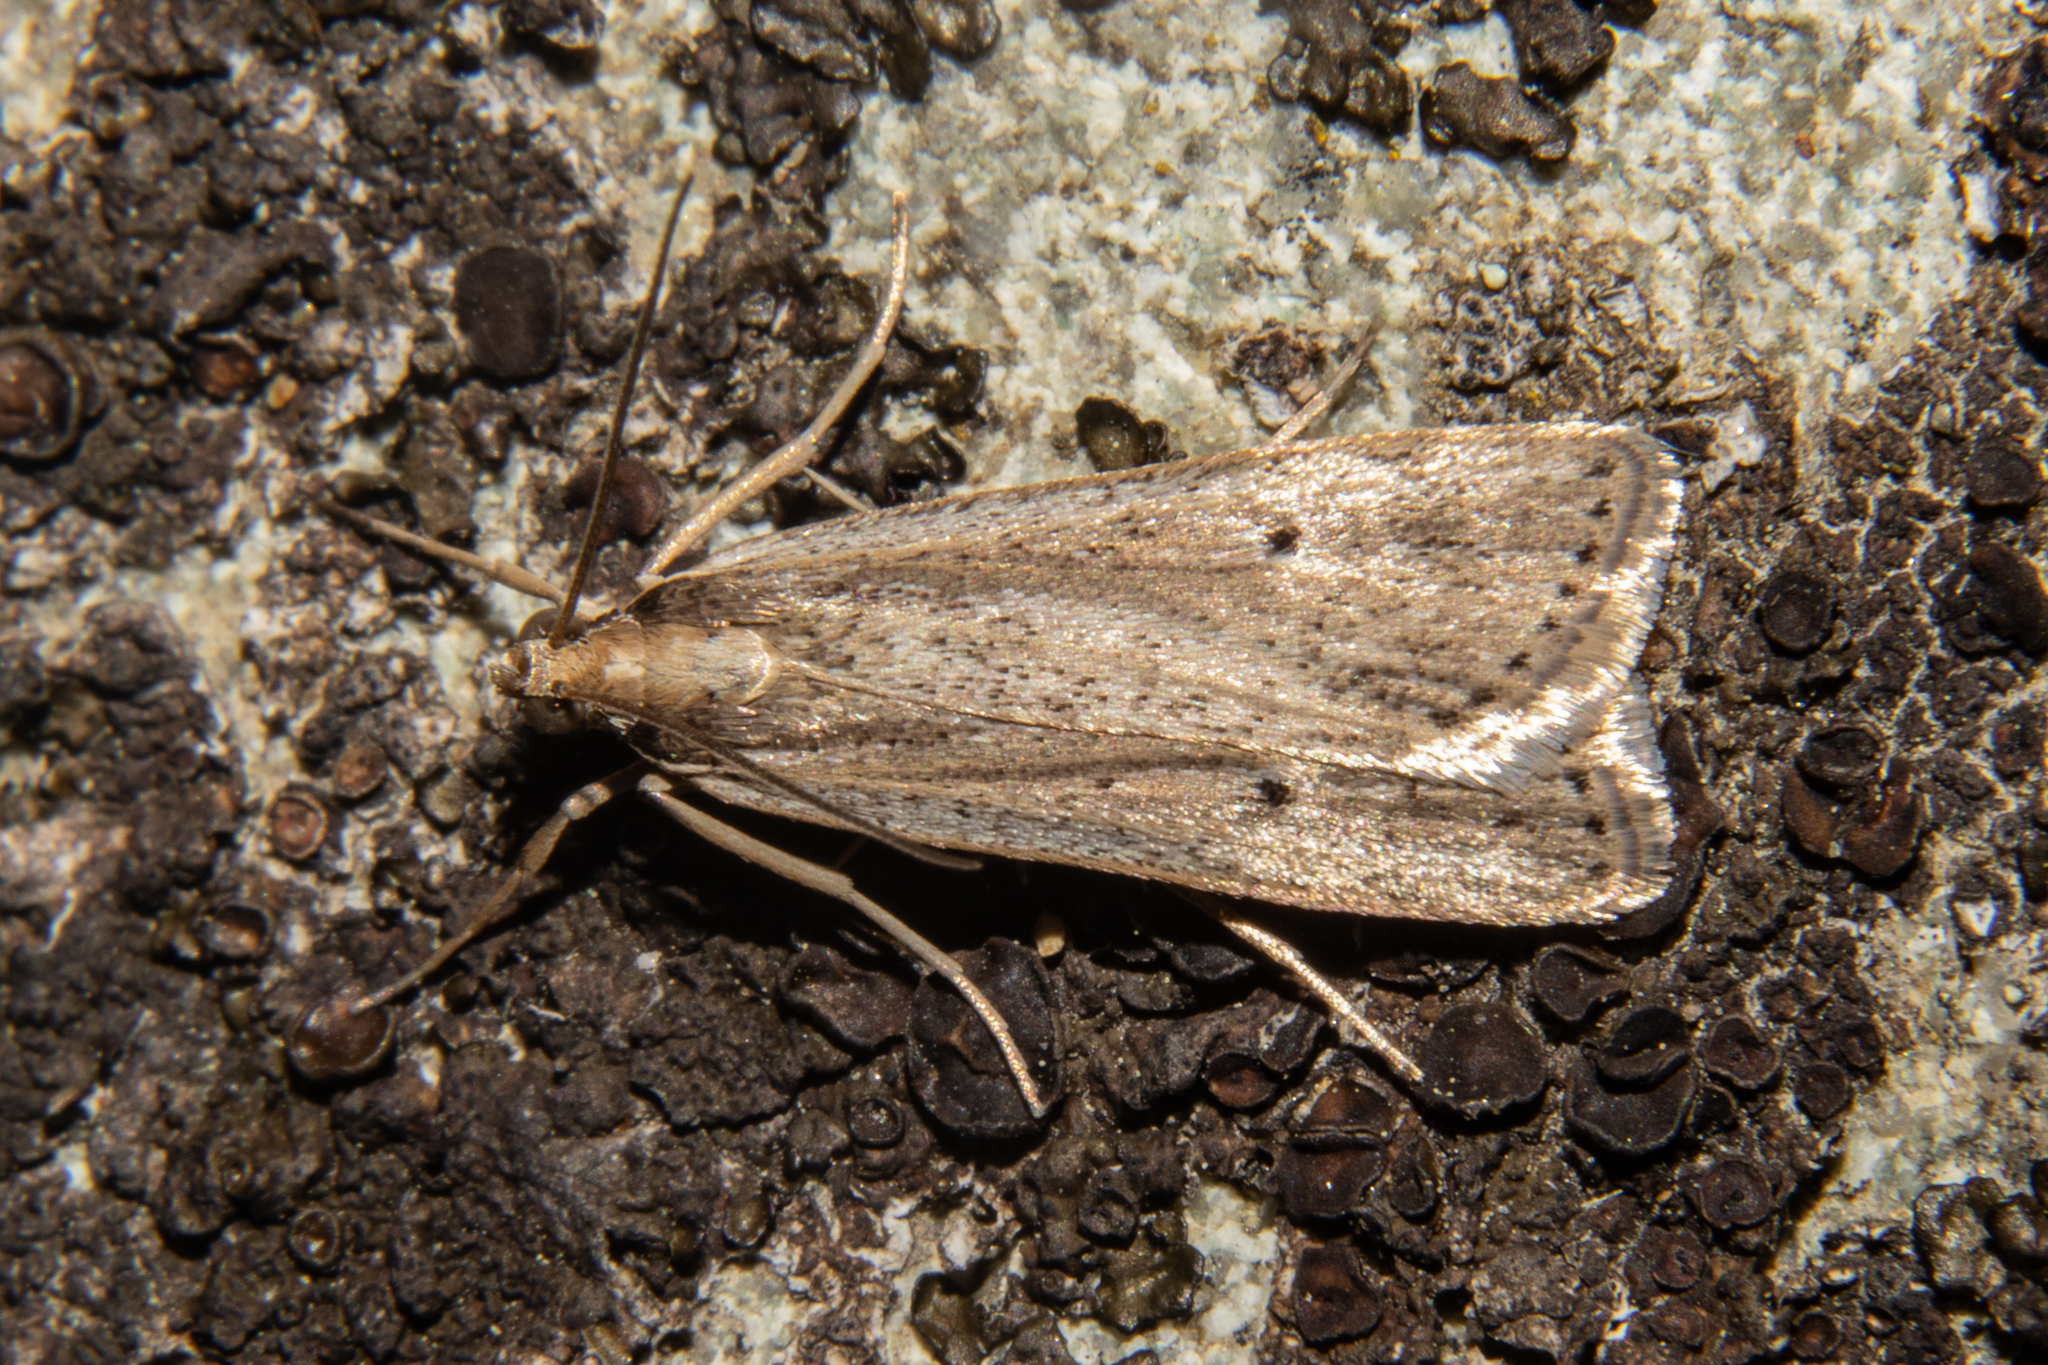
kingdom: Animalia
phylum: Arthropoda
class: Insecta
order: Lepidoptera
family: Crambidae
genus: Eudonia
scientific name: Eudonia sabulosella
